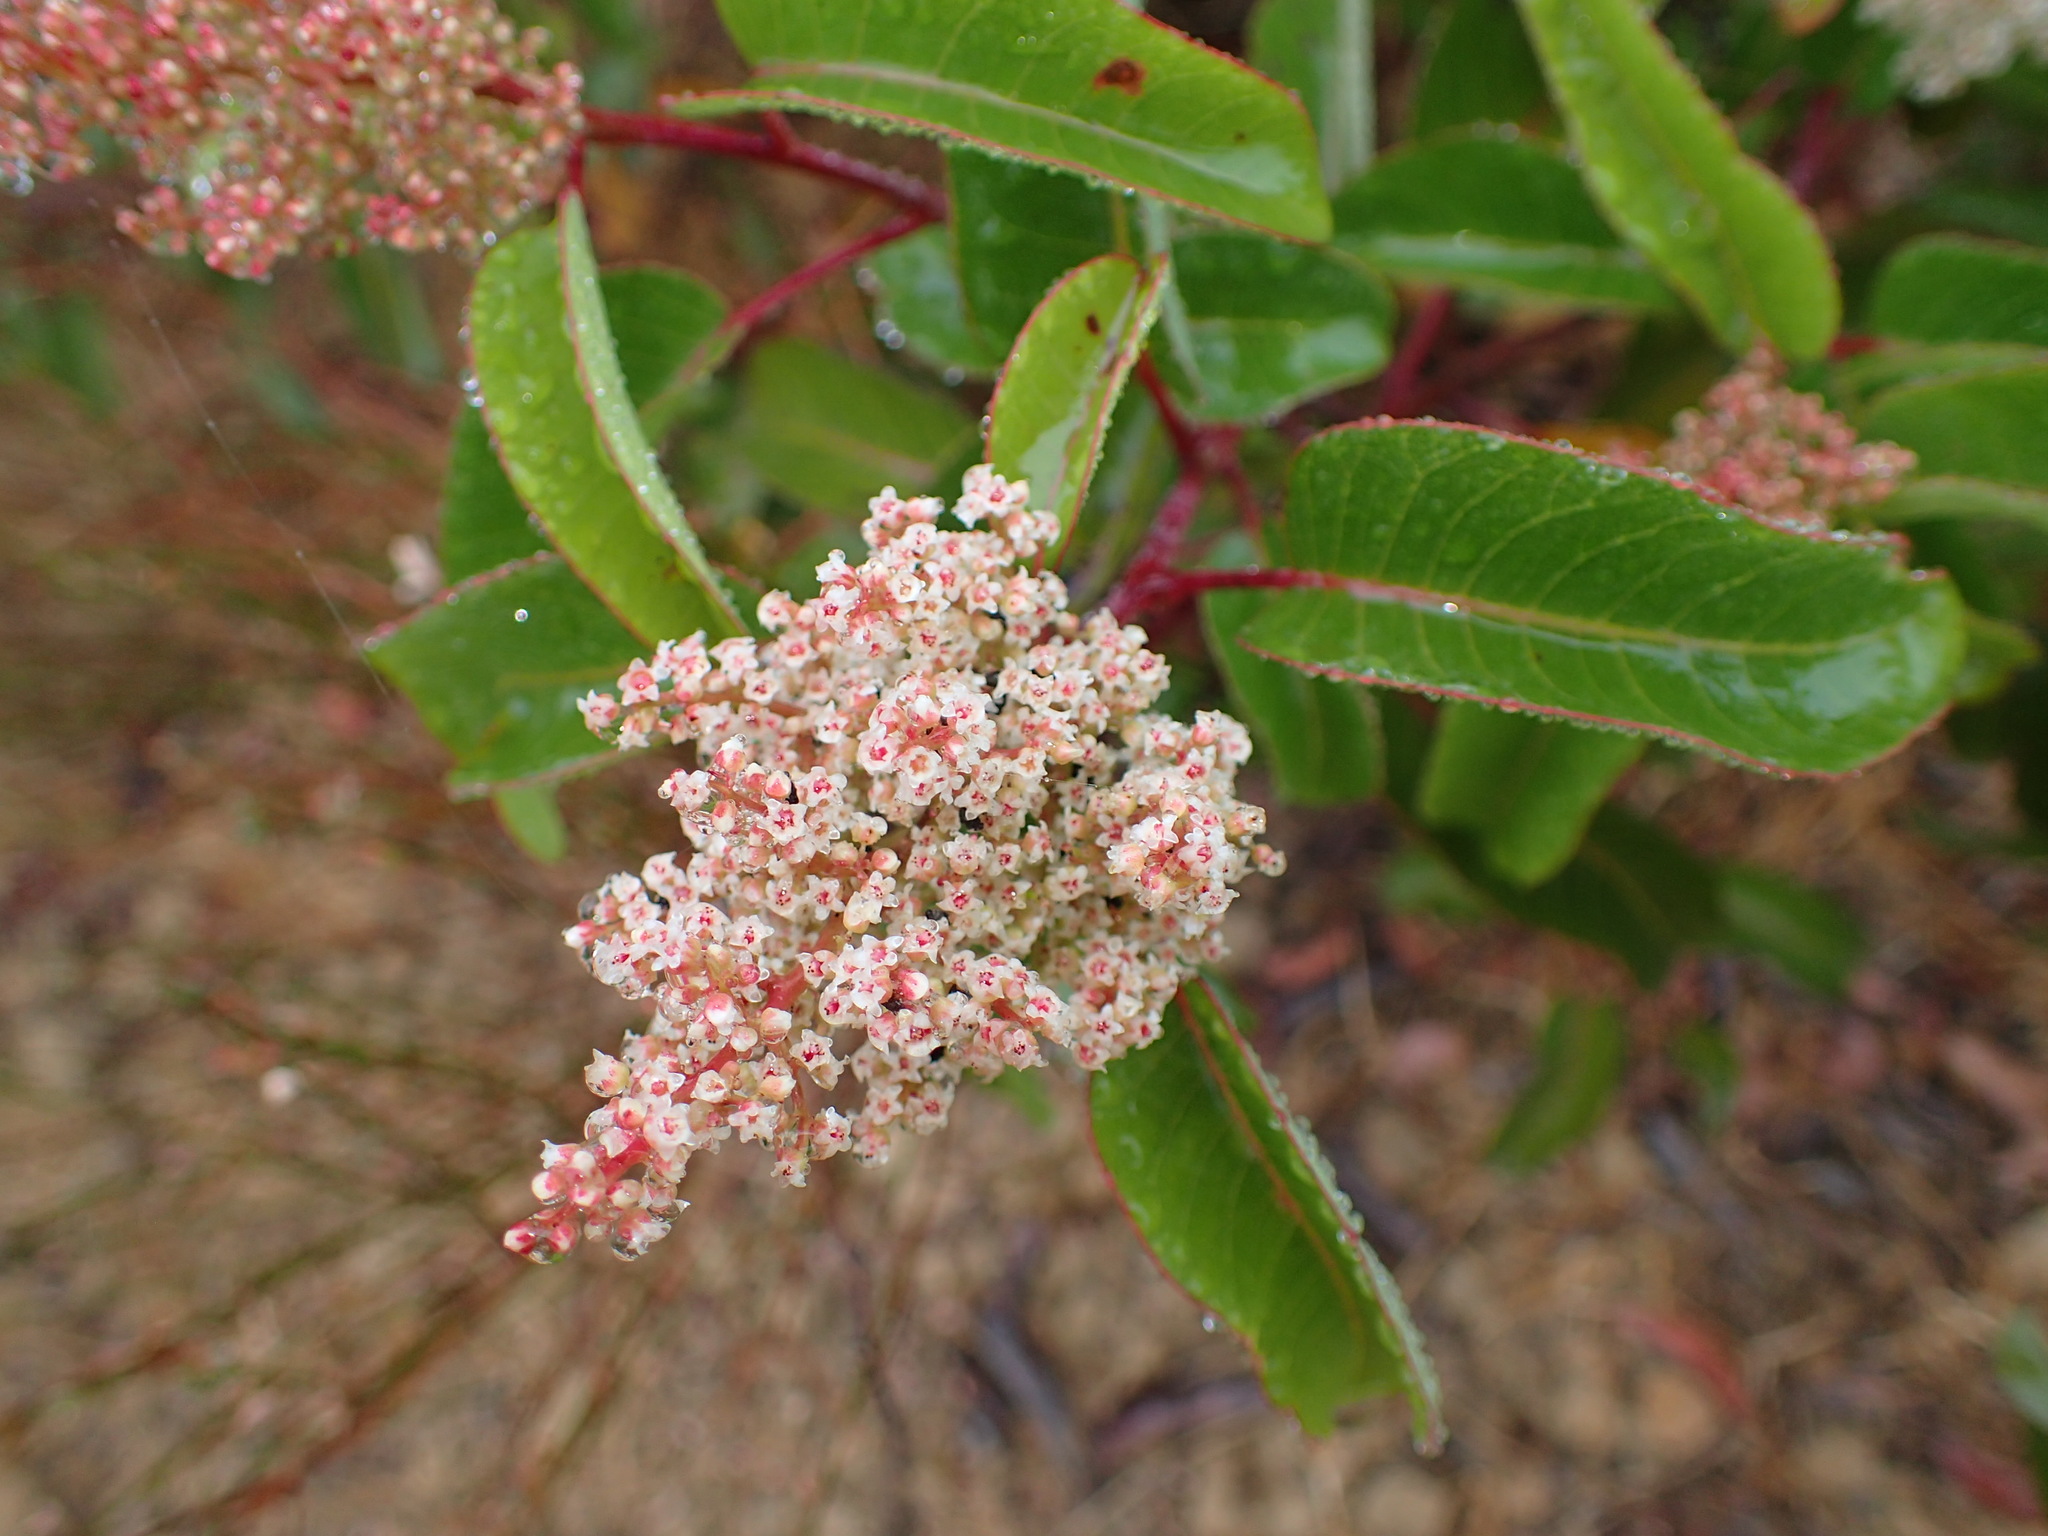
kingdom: Plantae
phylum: Tracheophyta
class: Magnoliopsida
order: Sapindales
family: Anacardiaceae
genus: Malosma
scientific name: Malosma laurina
